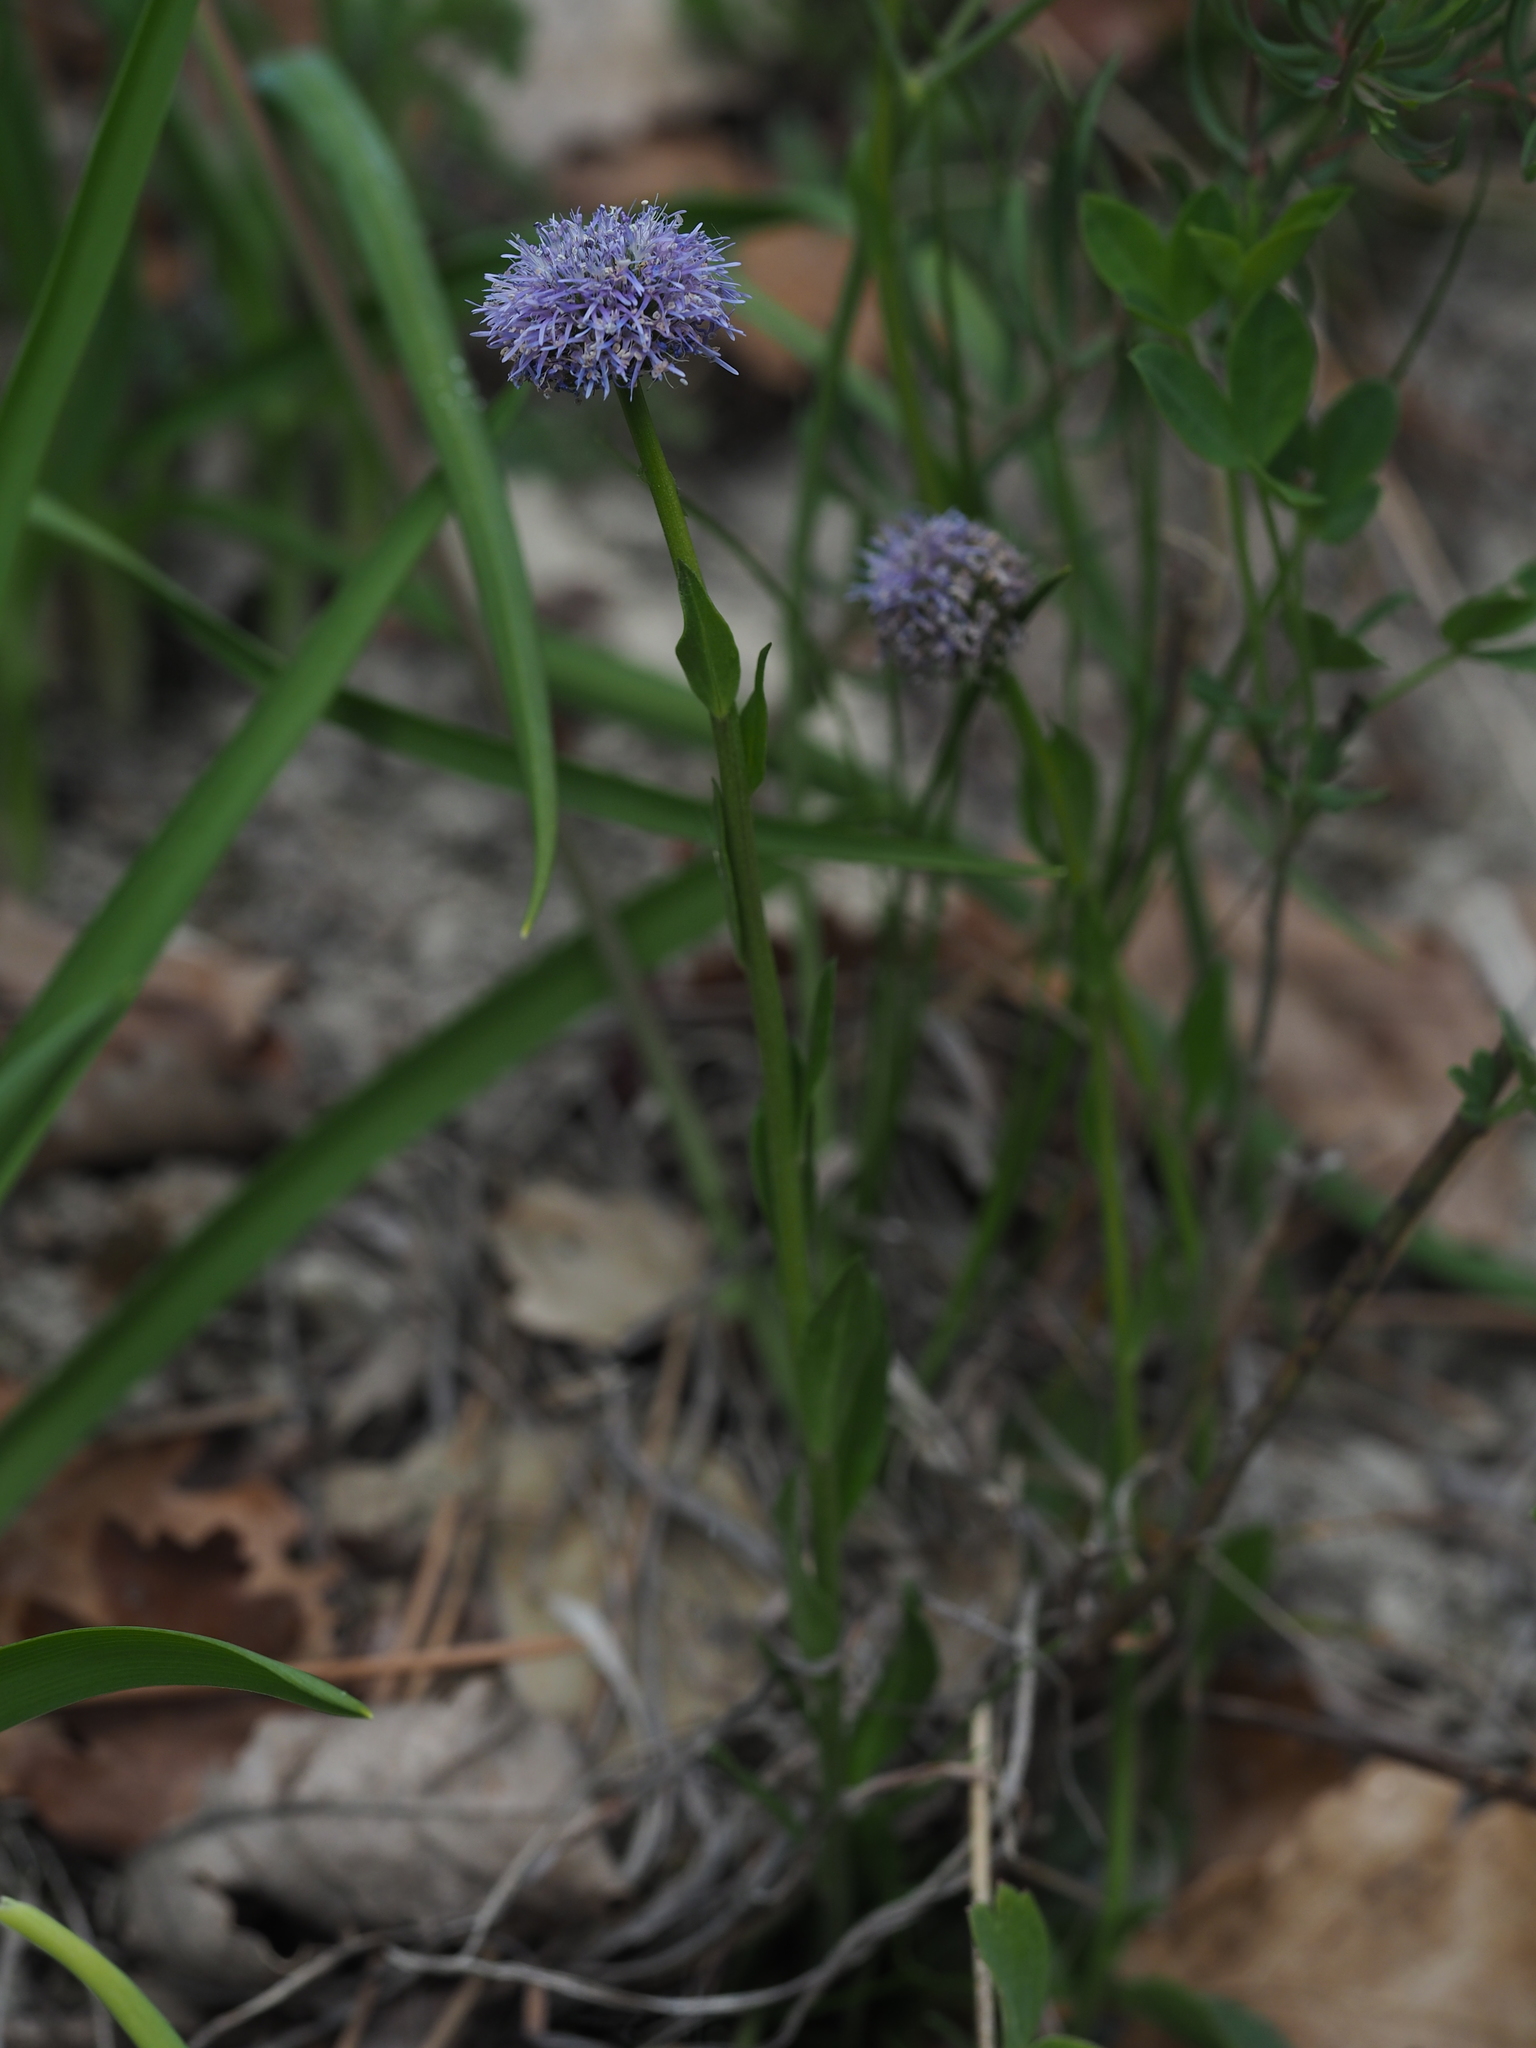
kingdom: Plantae
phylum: Tracheophyta
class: Magnoliopsida
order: Lamiales
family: Plantaginaceae
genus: Globularia
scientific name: Globularia bisnagarica
